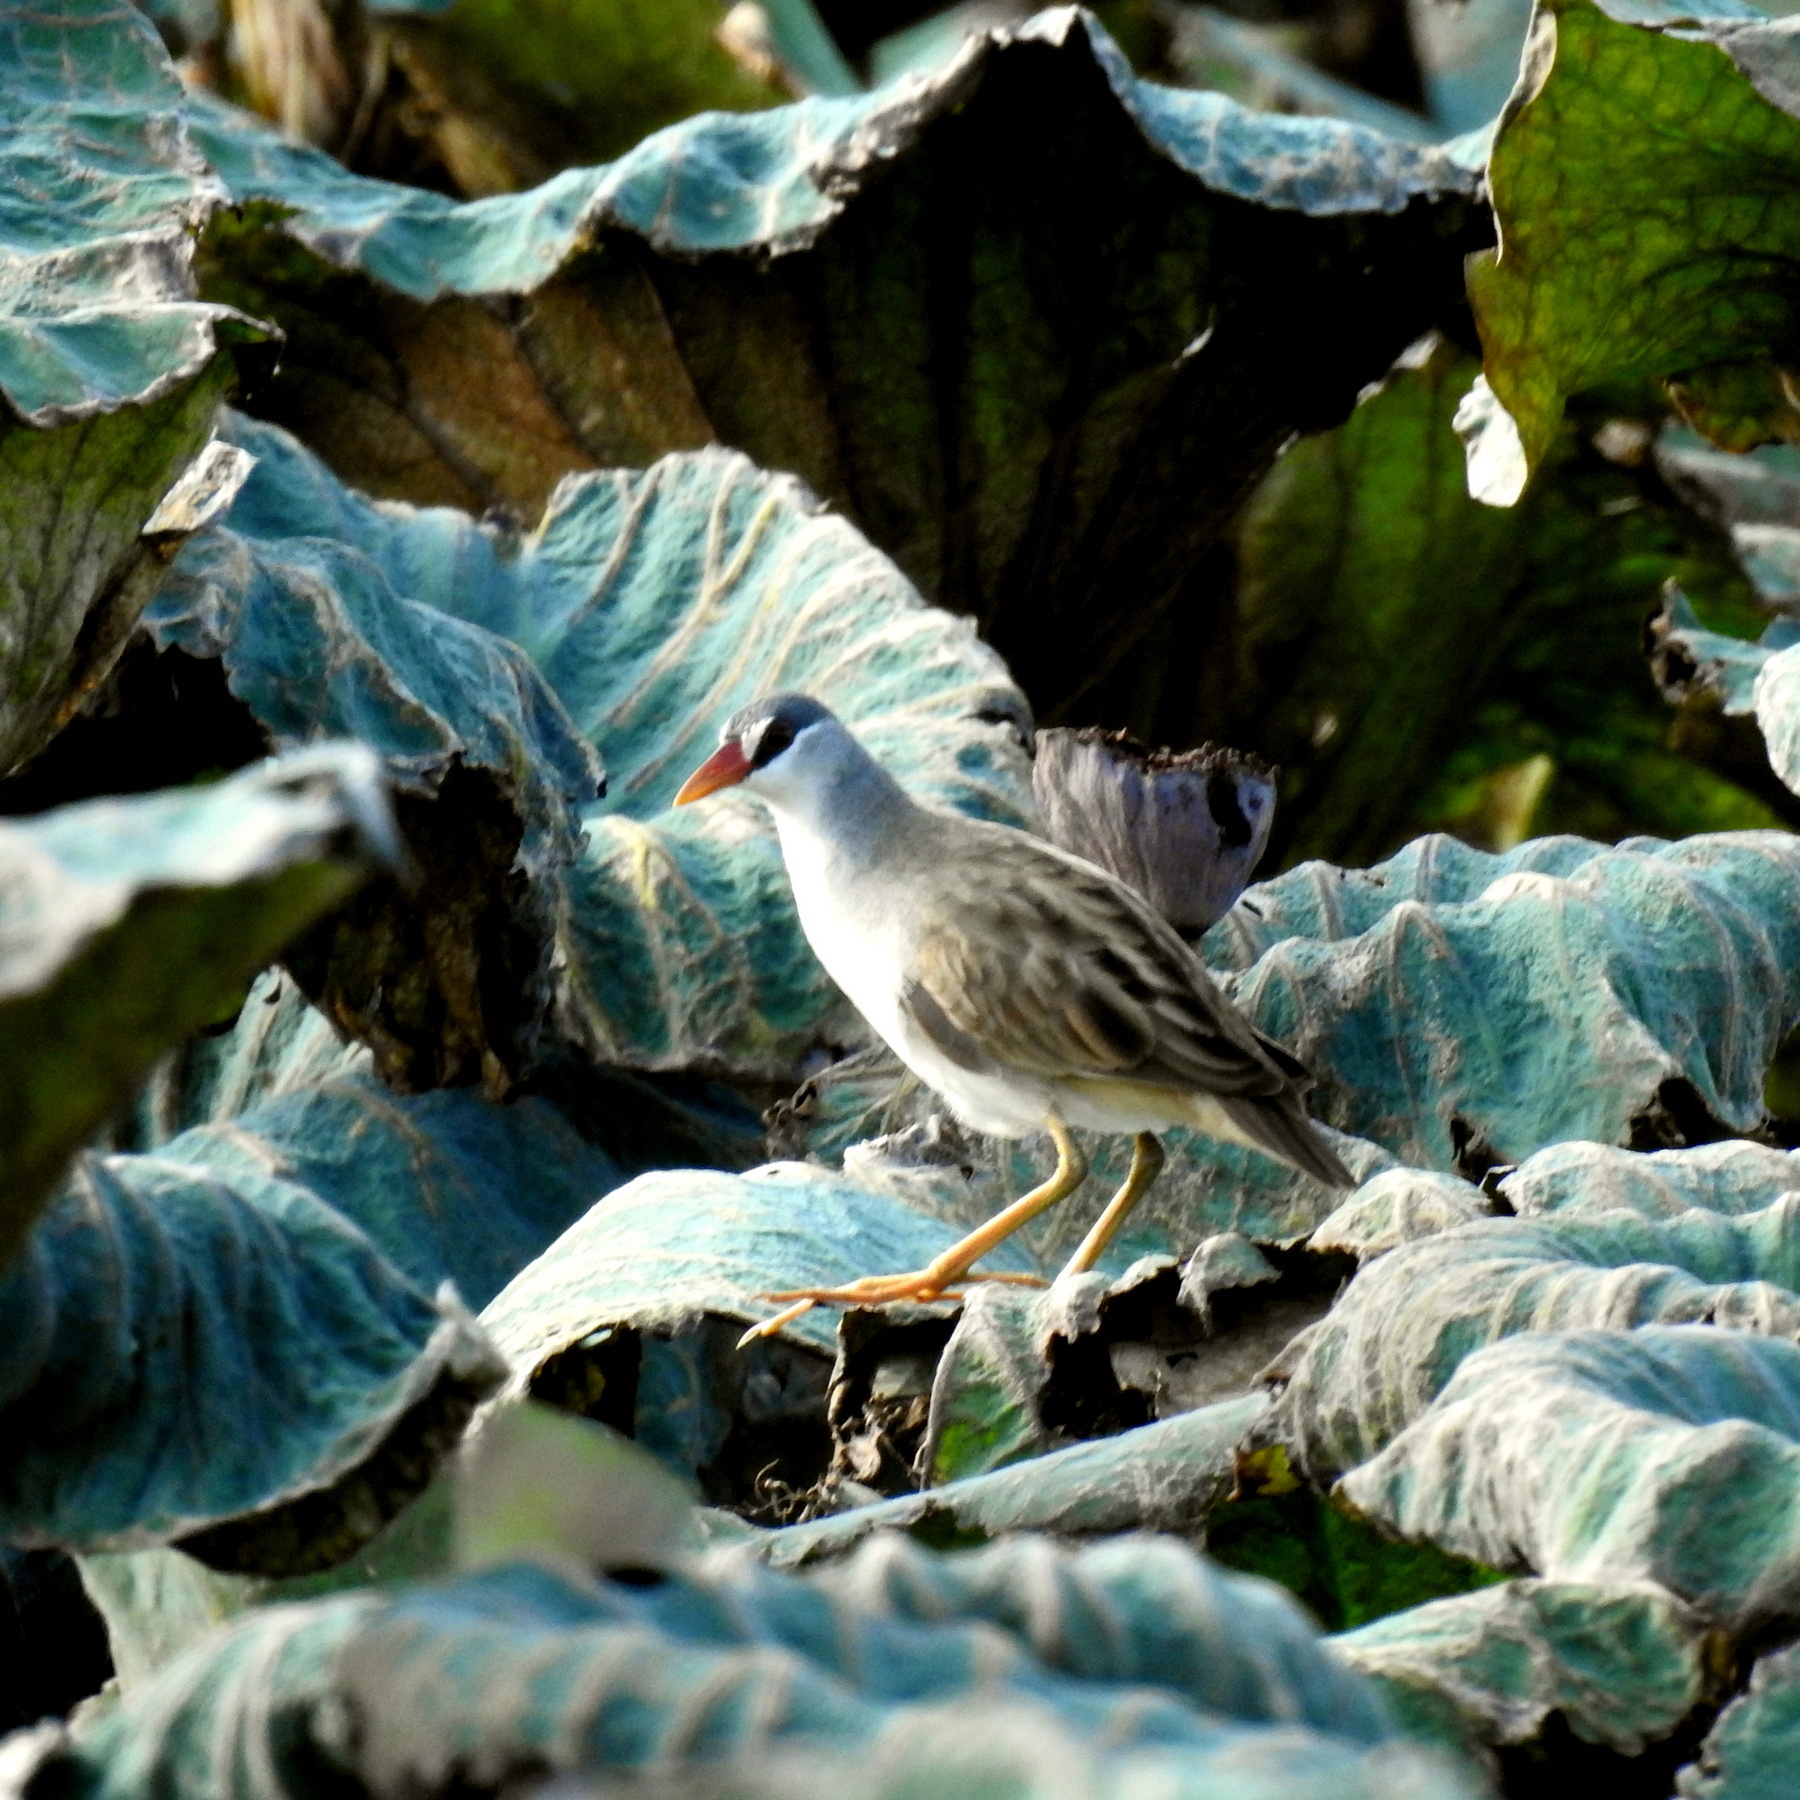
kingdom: Animalia
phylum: Chordata
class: Aves
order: Gruiformes
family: Rallidae
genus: Porzana
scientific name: Porzana cinerea
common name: White-browed crake
